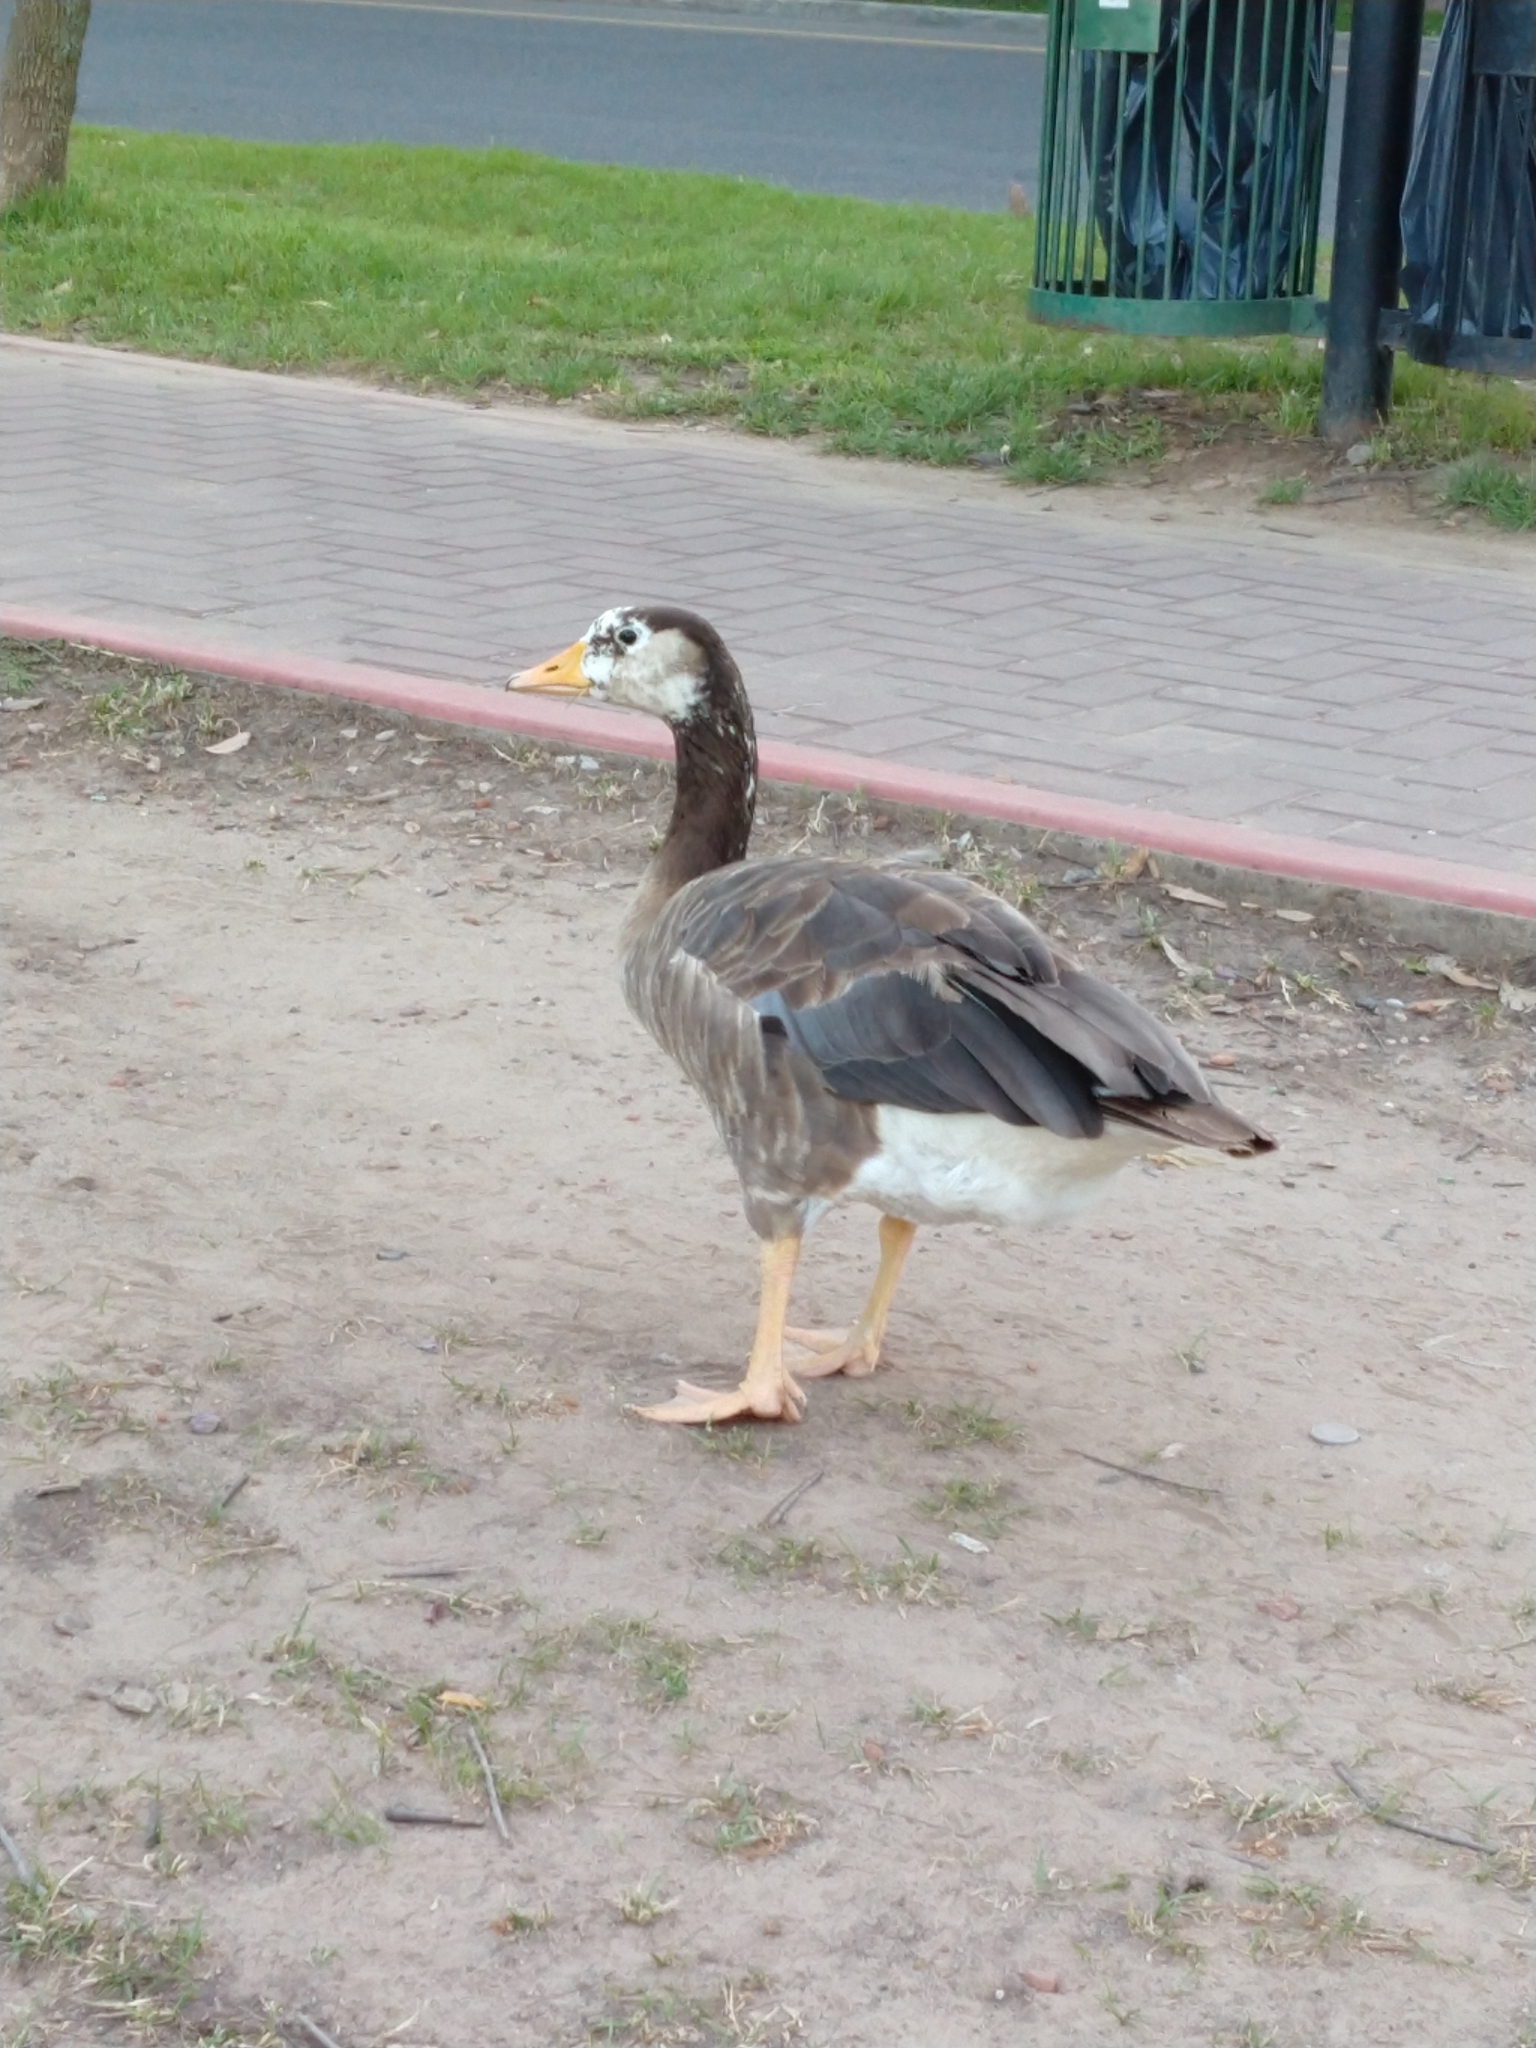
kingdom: Animalia
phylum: Chordata
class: Aves
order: Anseriformes
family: Anatidae
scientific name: Anatidae
